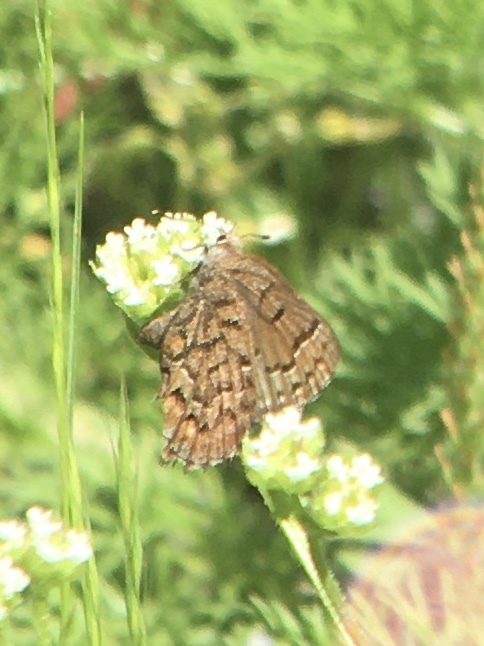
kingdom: Animalia
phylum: Arthropoda
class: Insecta
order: Lepidoptera
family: Lycaenidae
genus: Incisalia
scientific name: Incisalia niphon
